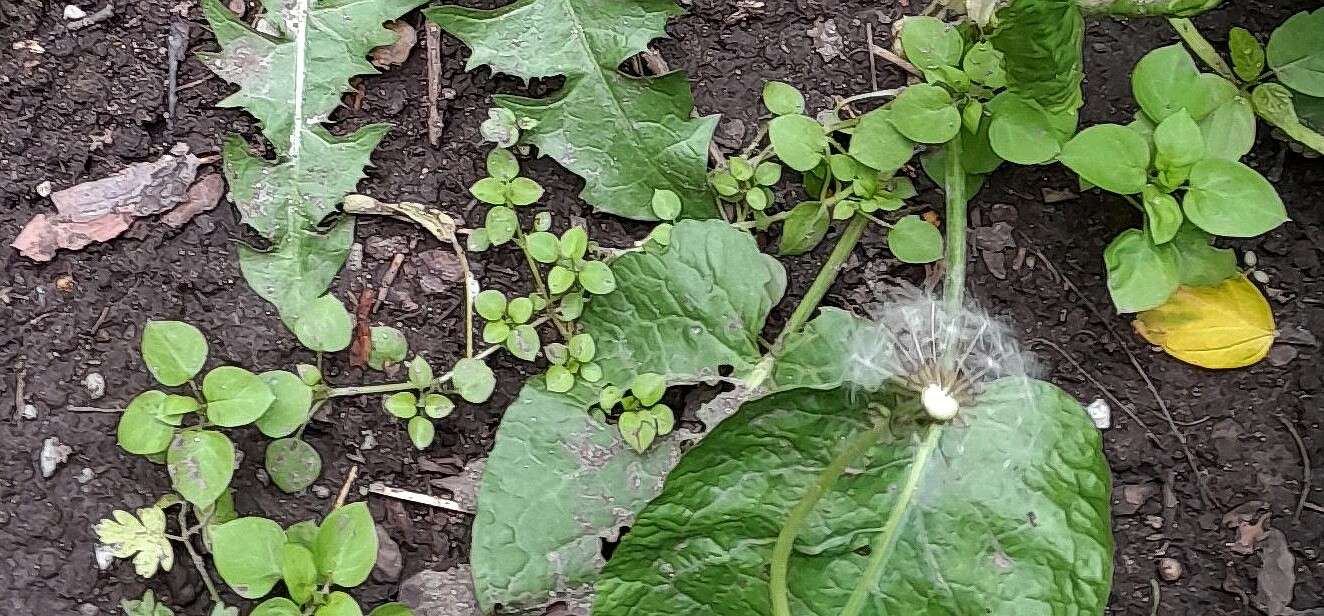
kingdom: Plantae
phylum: Tracheophyta
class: Magnoliopsida
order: Caryophyllales
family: Caryophyllaceae
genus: Stellaria
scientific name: Stellaria media
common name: Common chickweed
